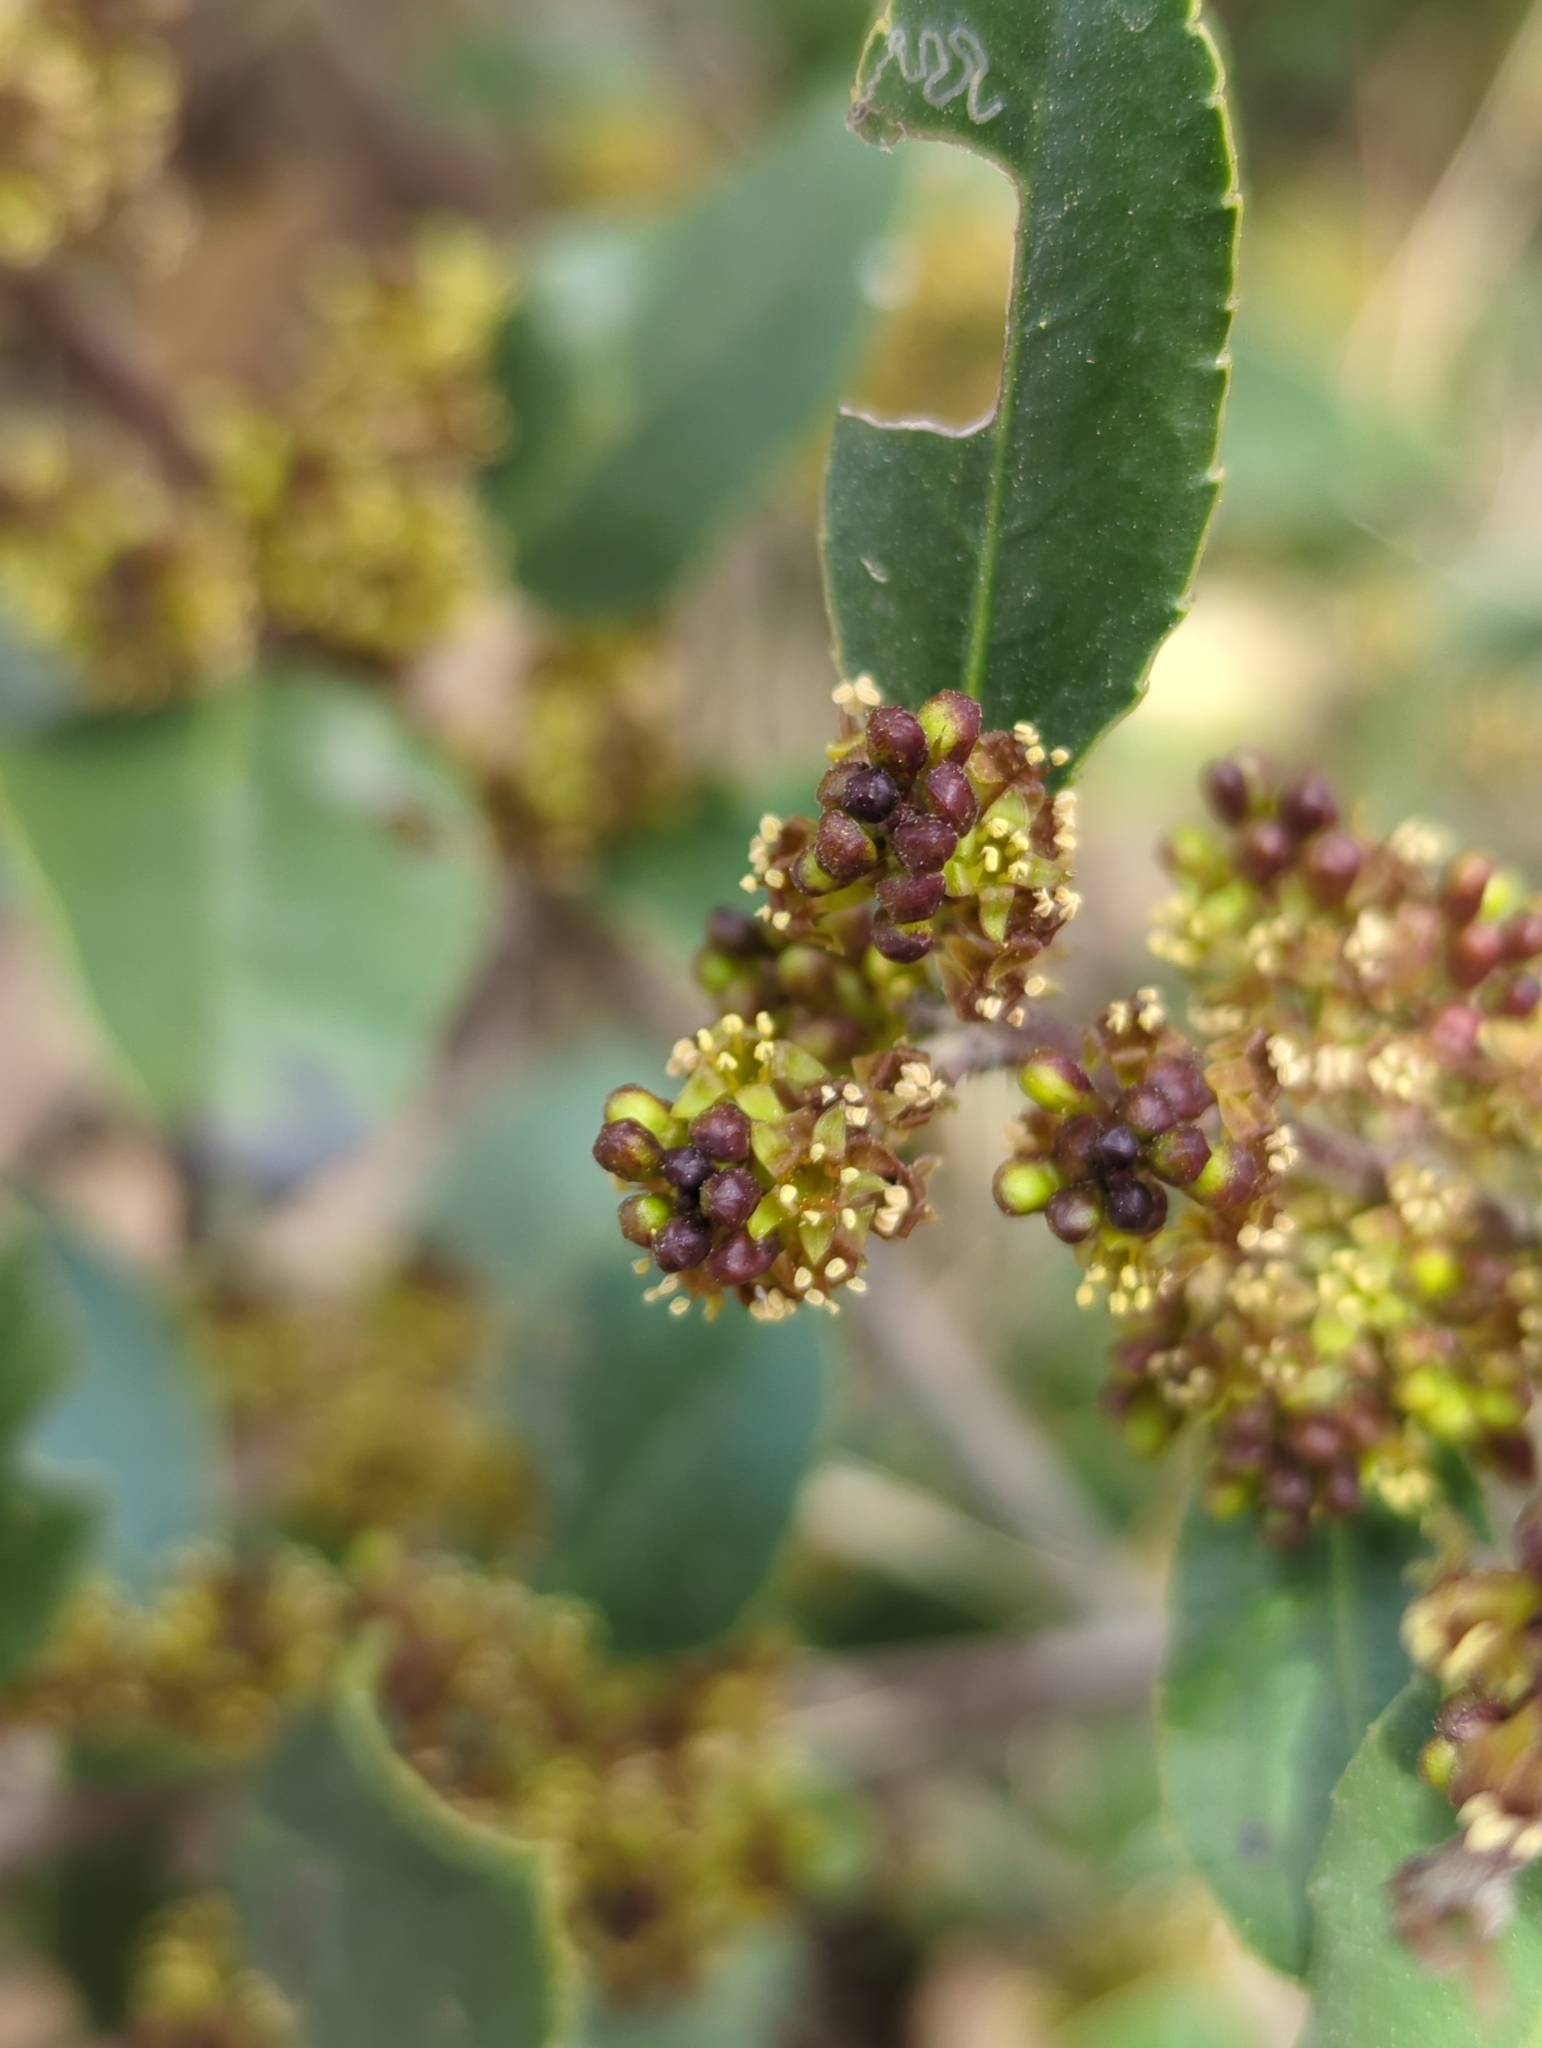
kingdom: Plantae
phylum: Tracheophyta
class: Magnoliopsida
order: Rosales
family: Rhamnaceae
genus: Rhamnus
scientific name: Rhamnus alaternus
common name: Mediterranean buckthorn
